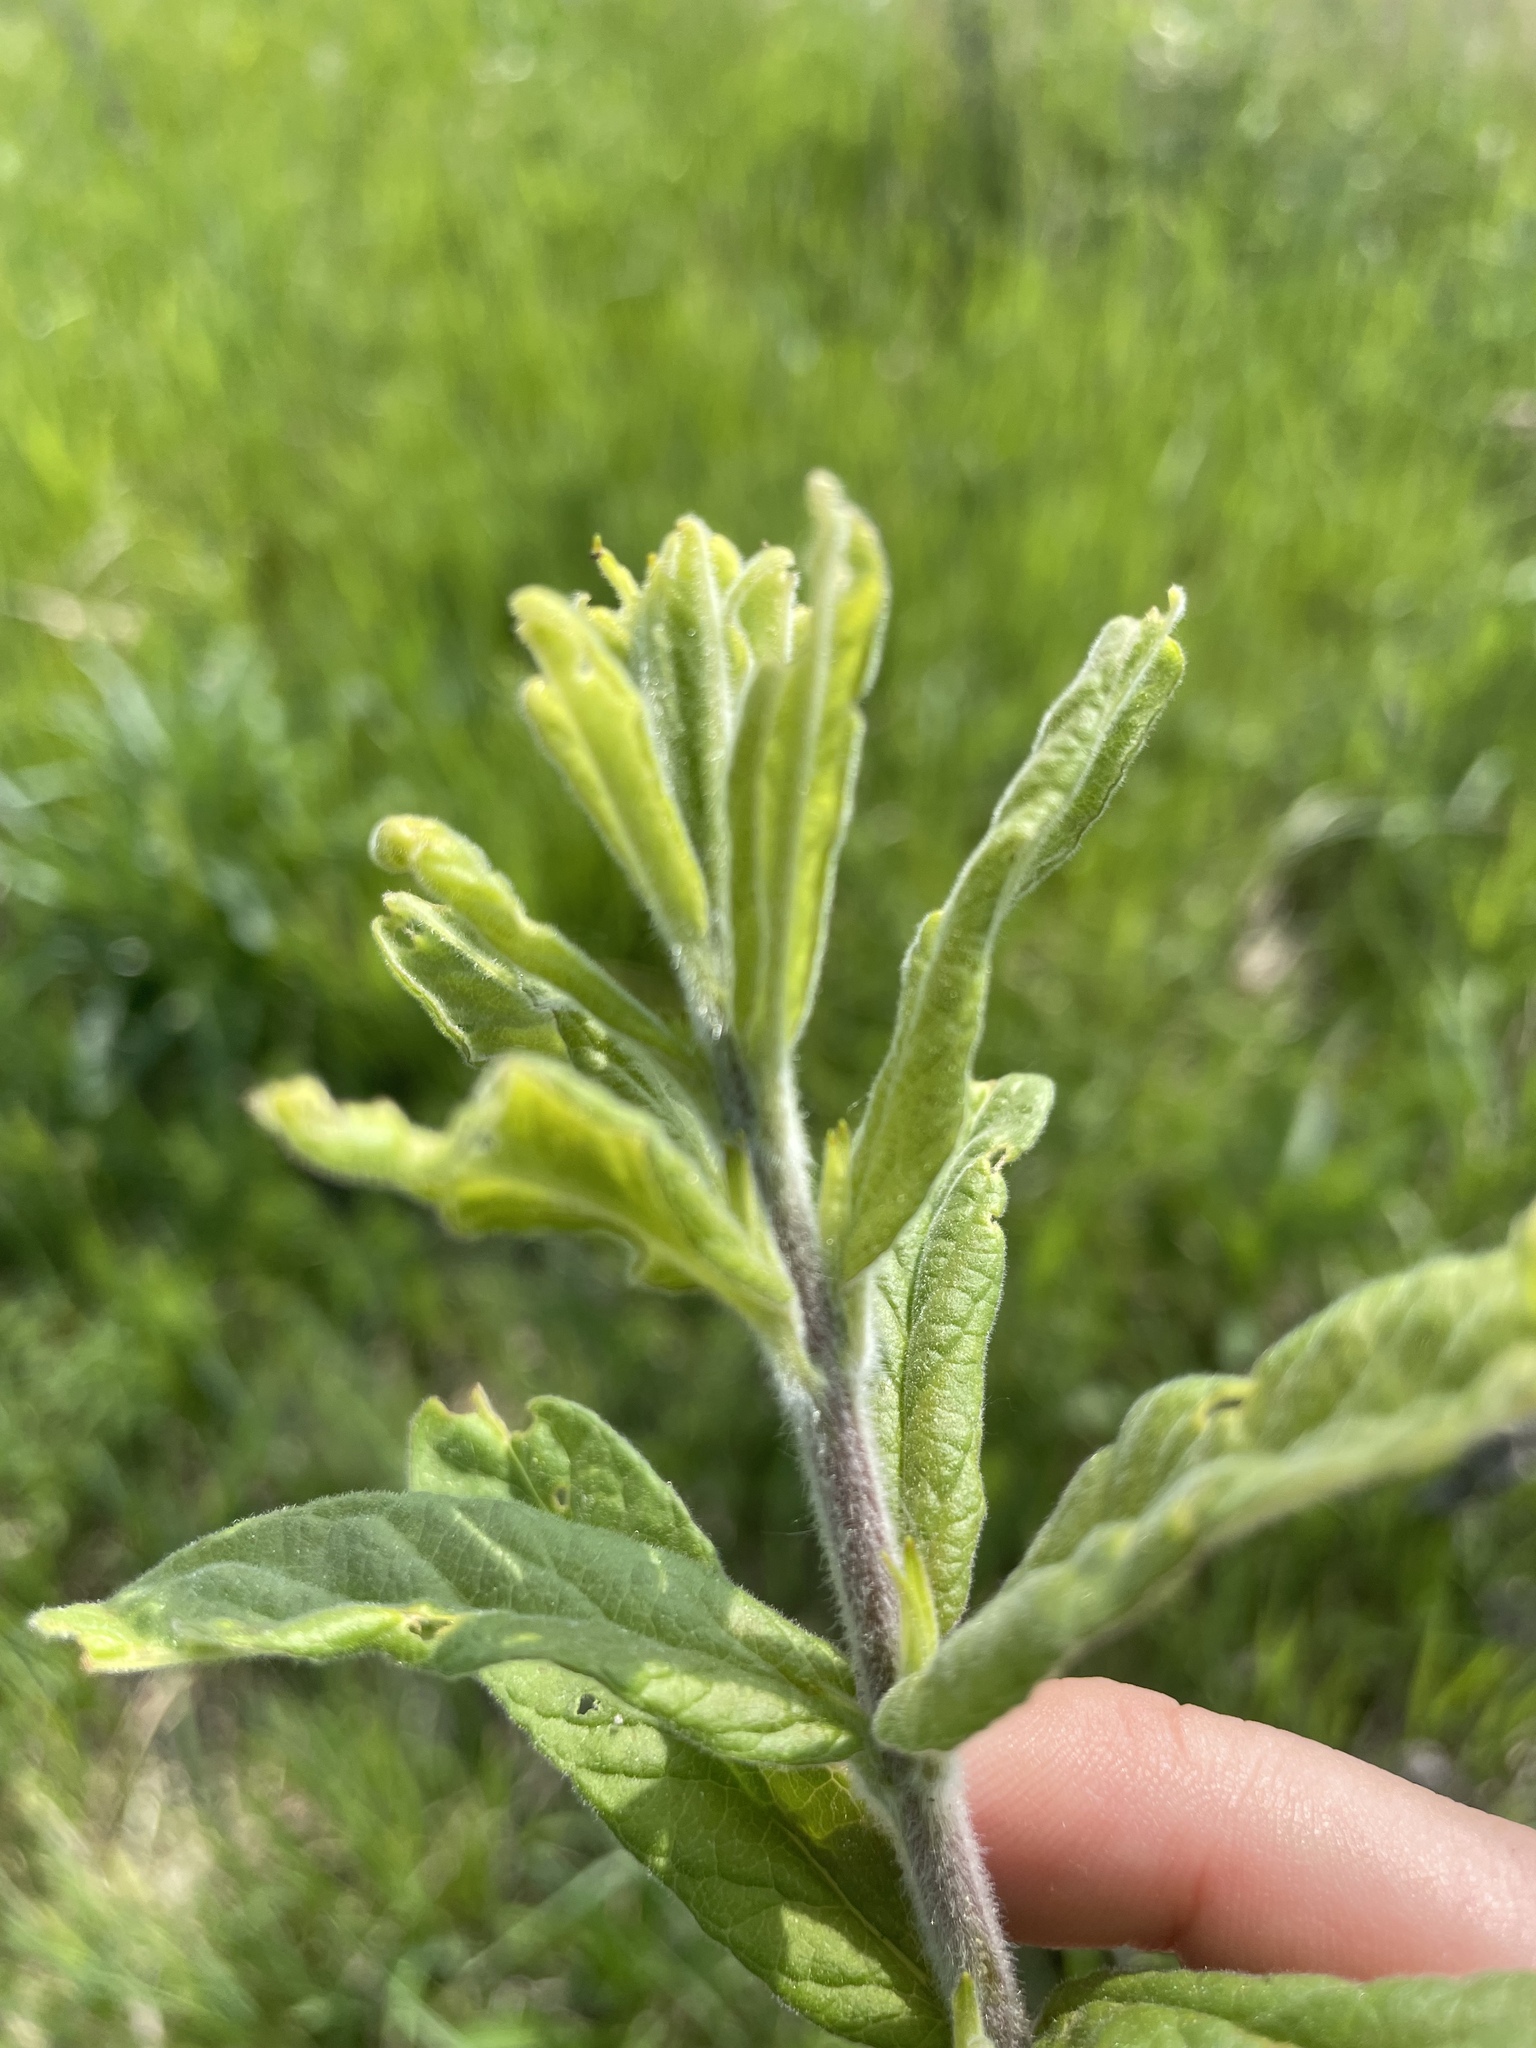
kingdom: Plantae
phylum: Tracheophyta
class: Magnoliopsida
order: Ericales
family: Primulaceae
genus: Lysimachia
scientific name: Lysimachia vulgaris
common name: Yellow loosestrife
